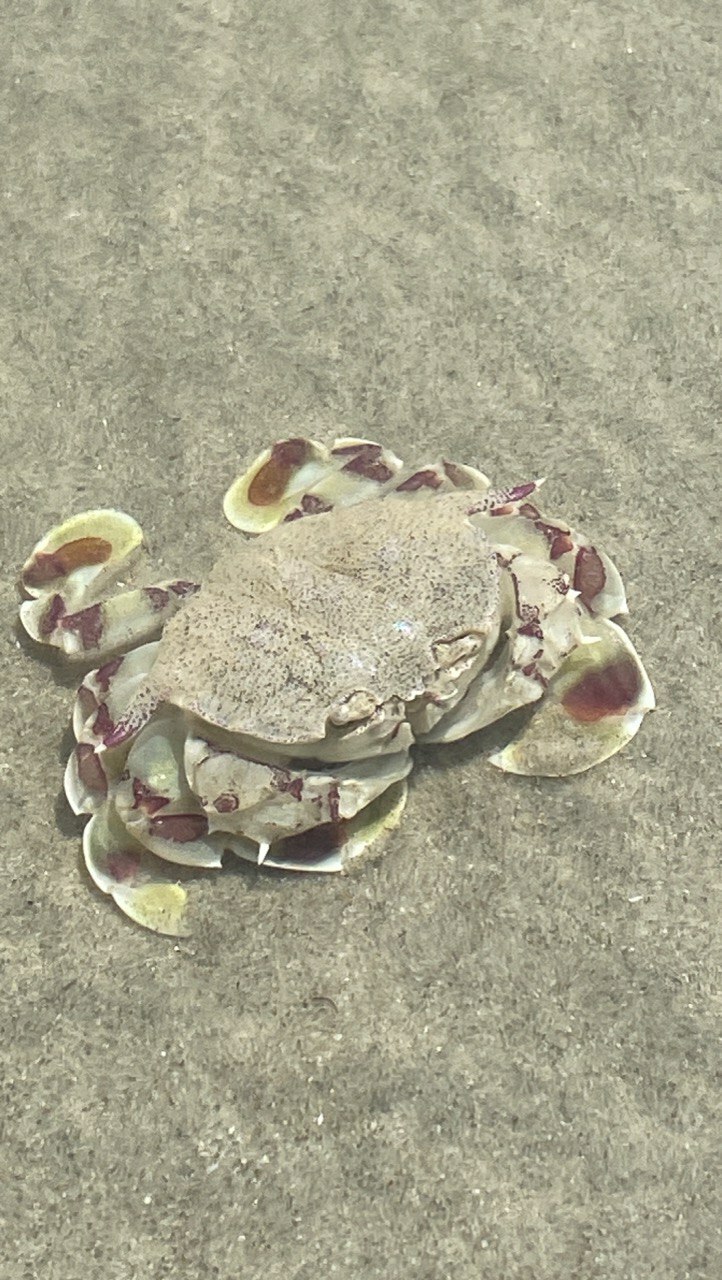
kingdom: Animalia
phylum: Arthropoda
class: Malacostraca
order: Decapoda
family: Matutidae
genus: Matuta
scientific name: Matuta victor
